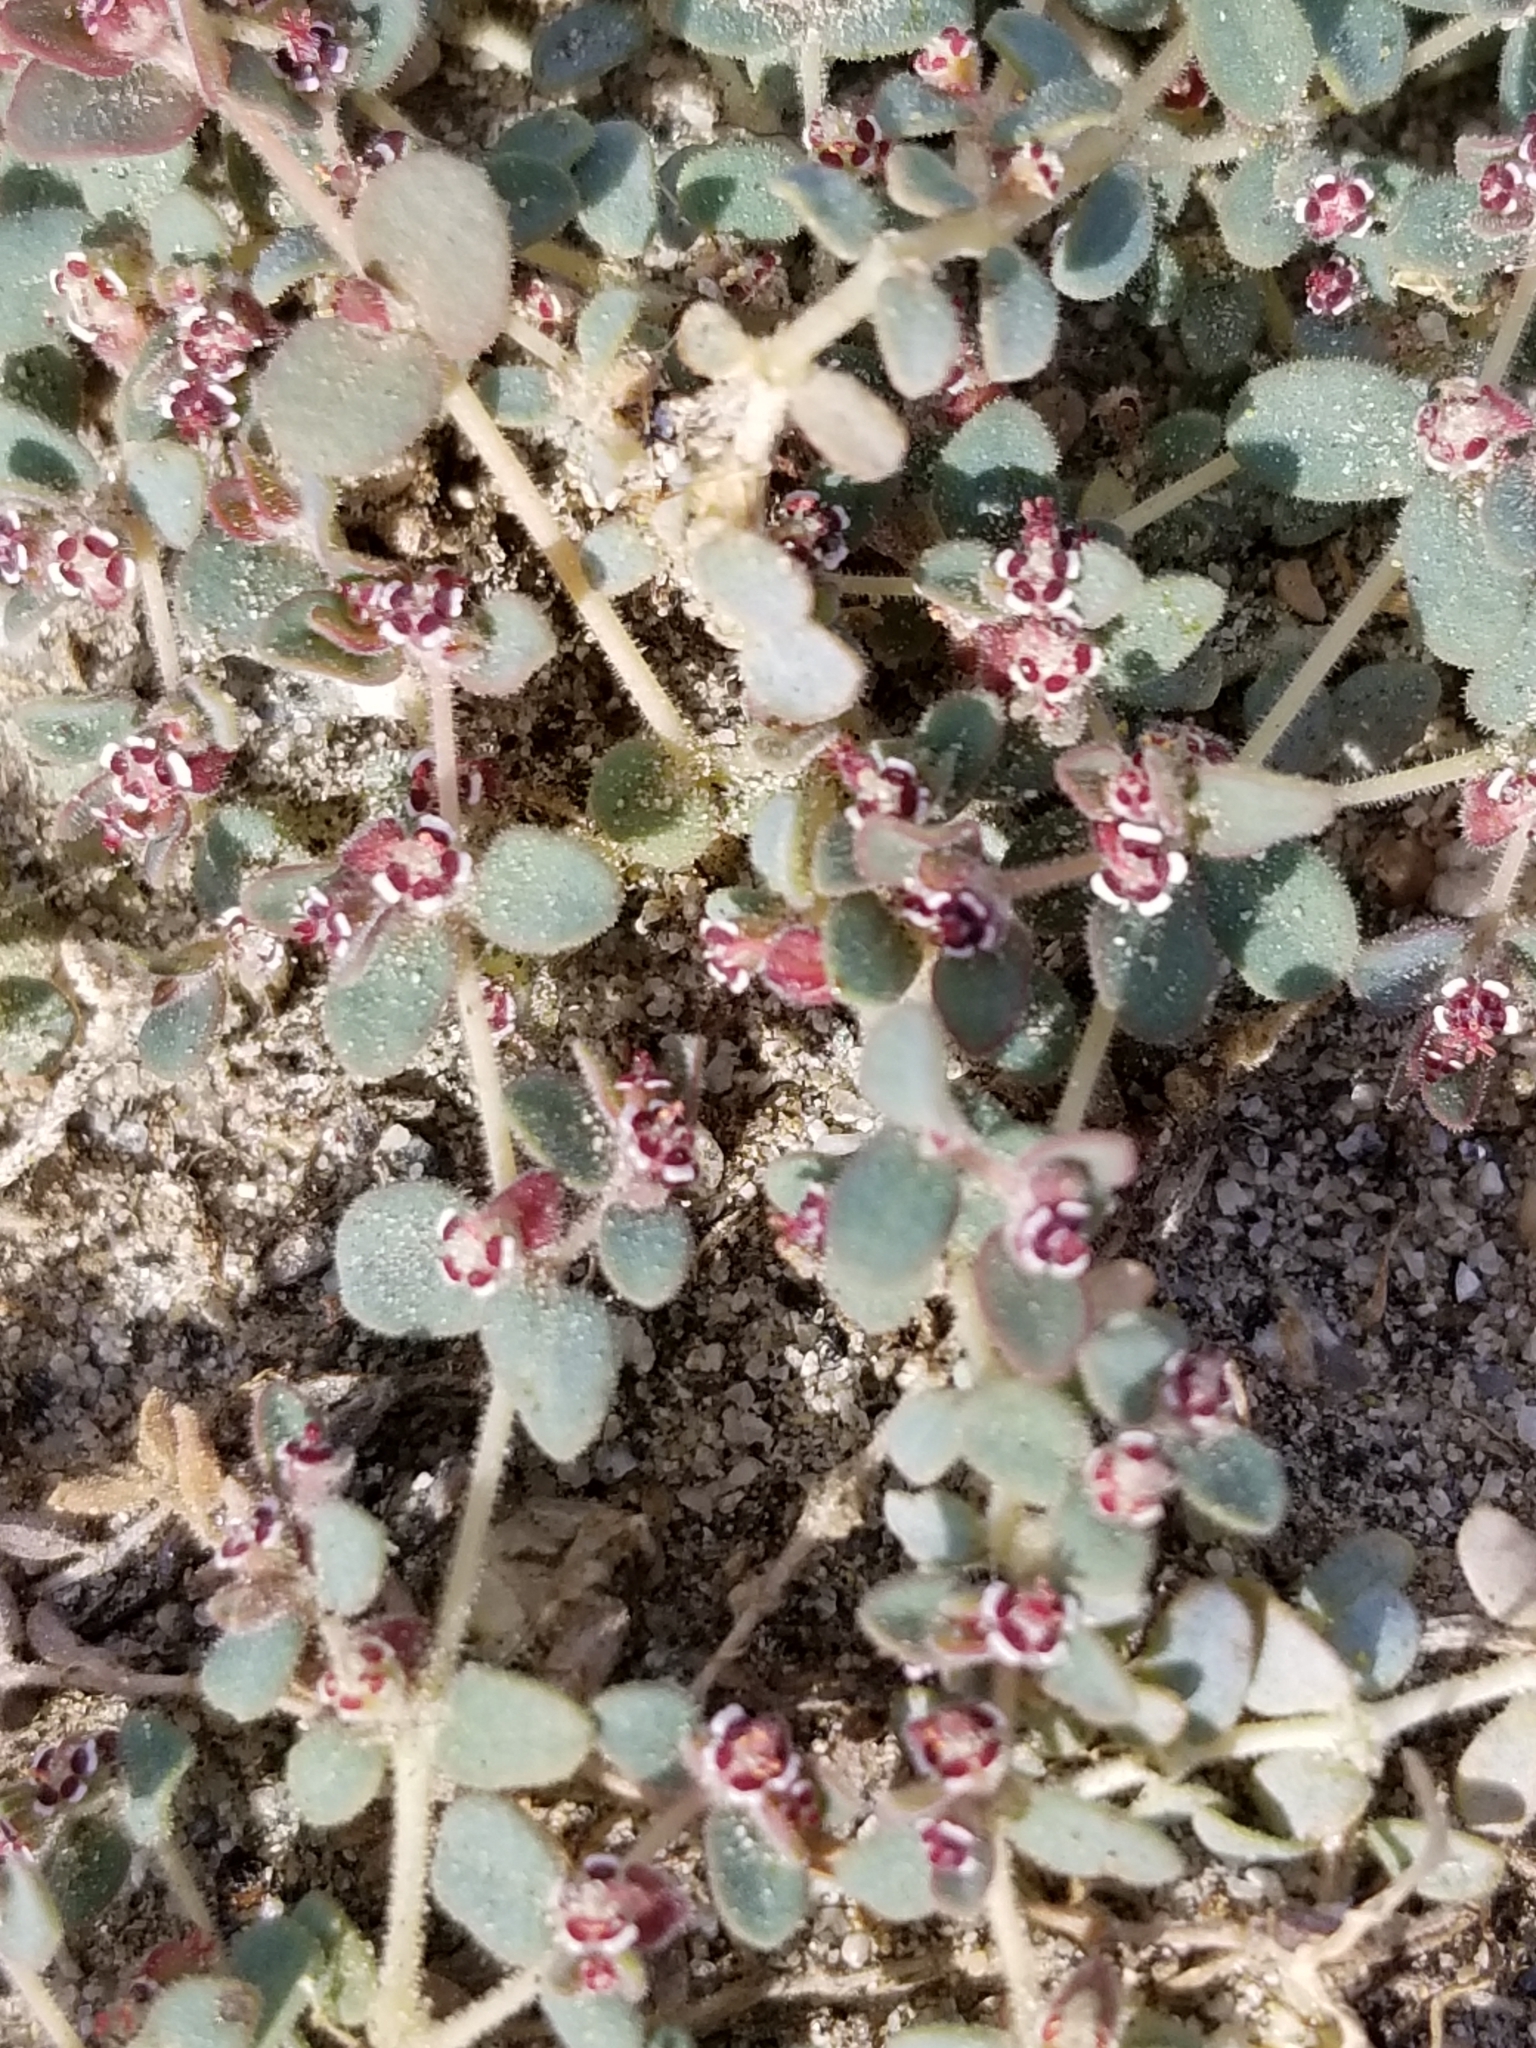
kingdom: Plantae
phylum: Tracheophyta
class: Magnoliopsida
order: Malpighiales
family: Euphorbiaceae
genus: Euphorbia
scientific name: Euphorbia polycarpa
